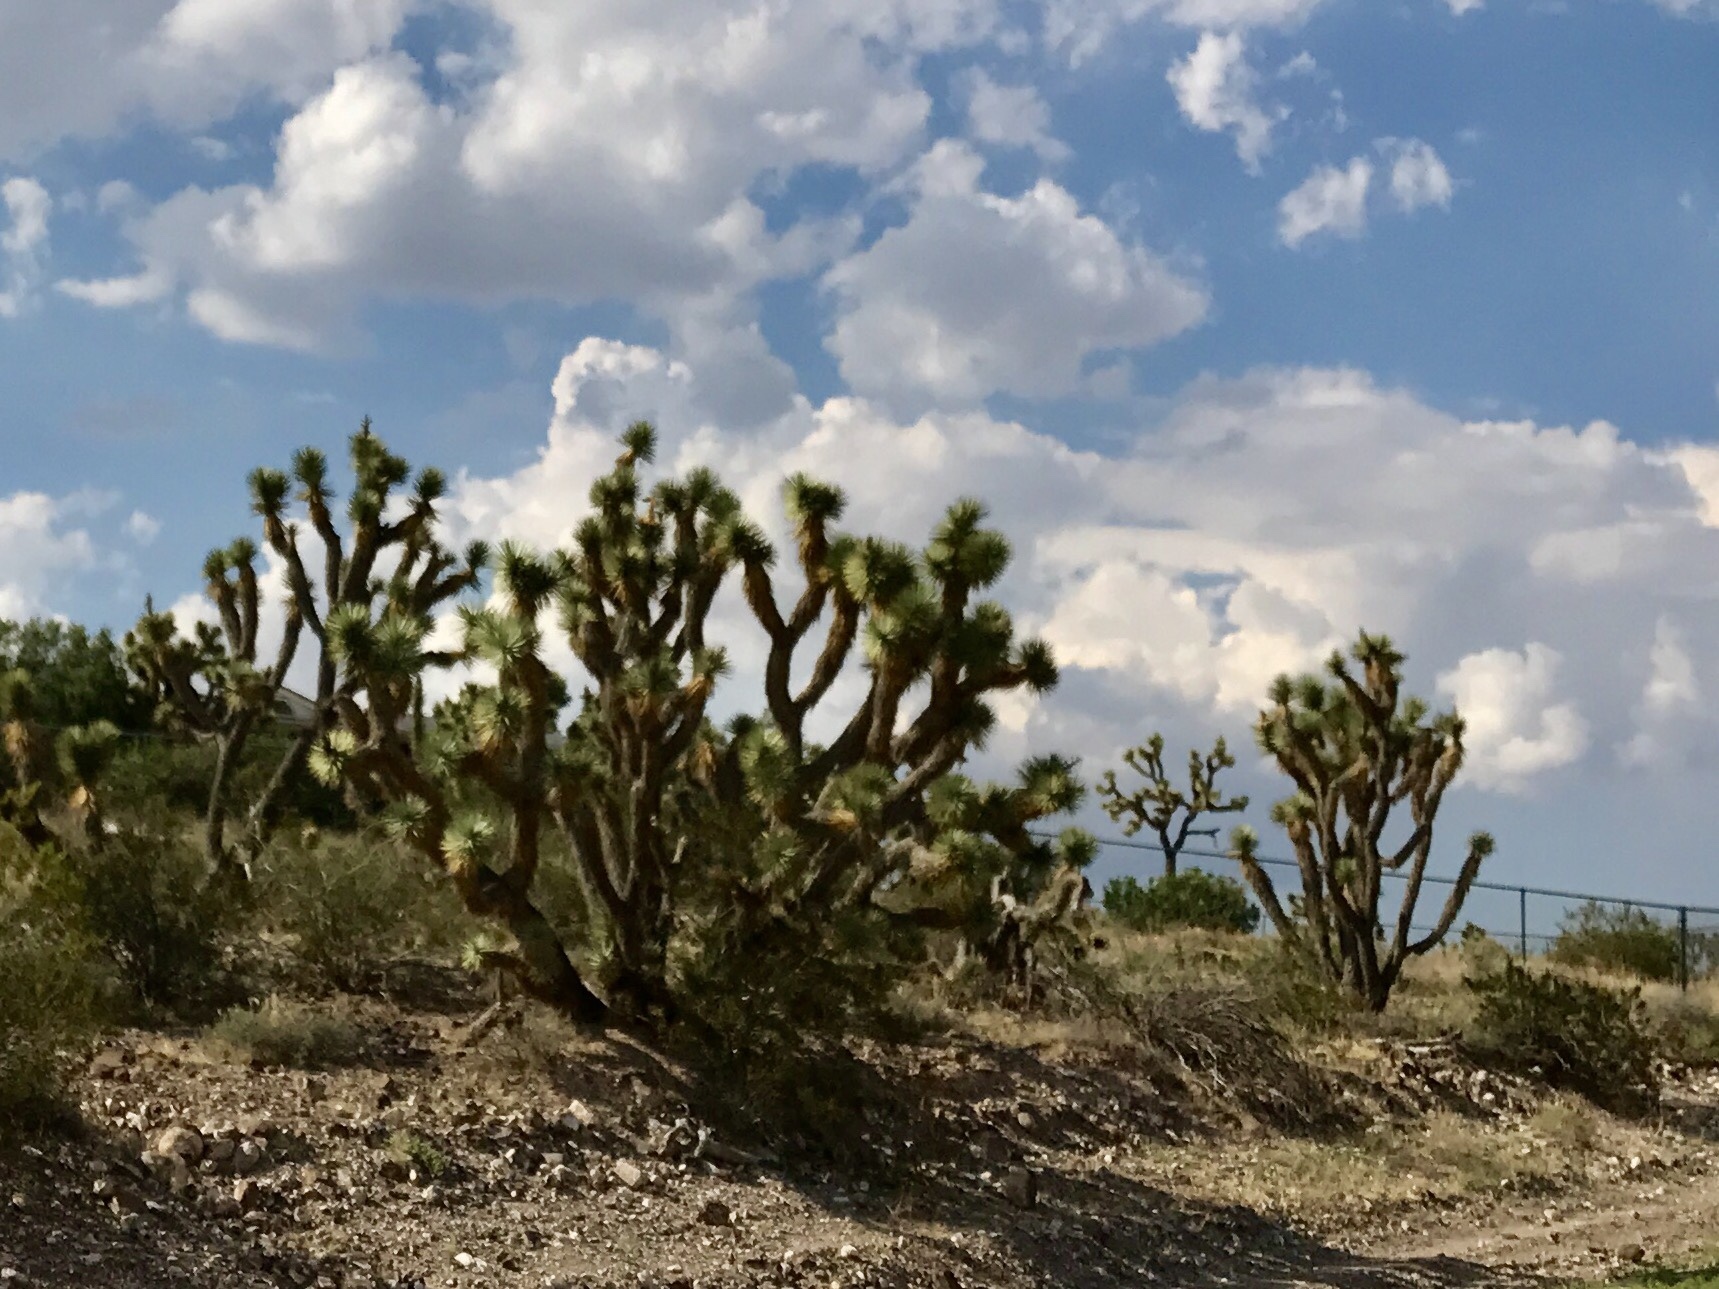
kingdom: Plantae
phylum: Tracheophyta
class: Liliopsida
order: Asparagales
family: Asparagaceae
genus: Yucca
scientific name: Yucca brevifolia
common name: Joshua tree
